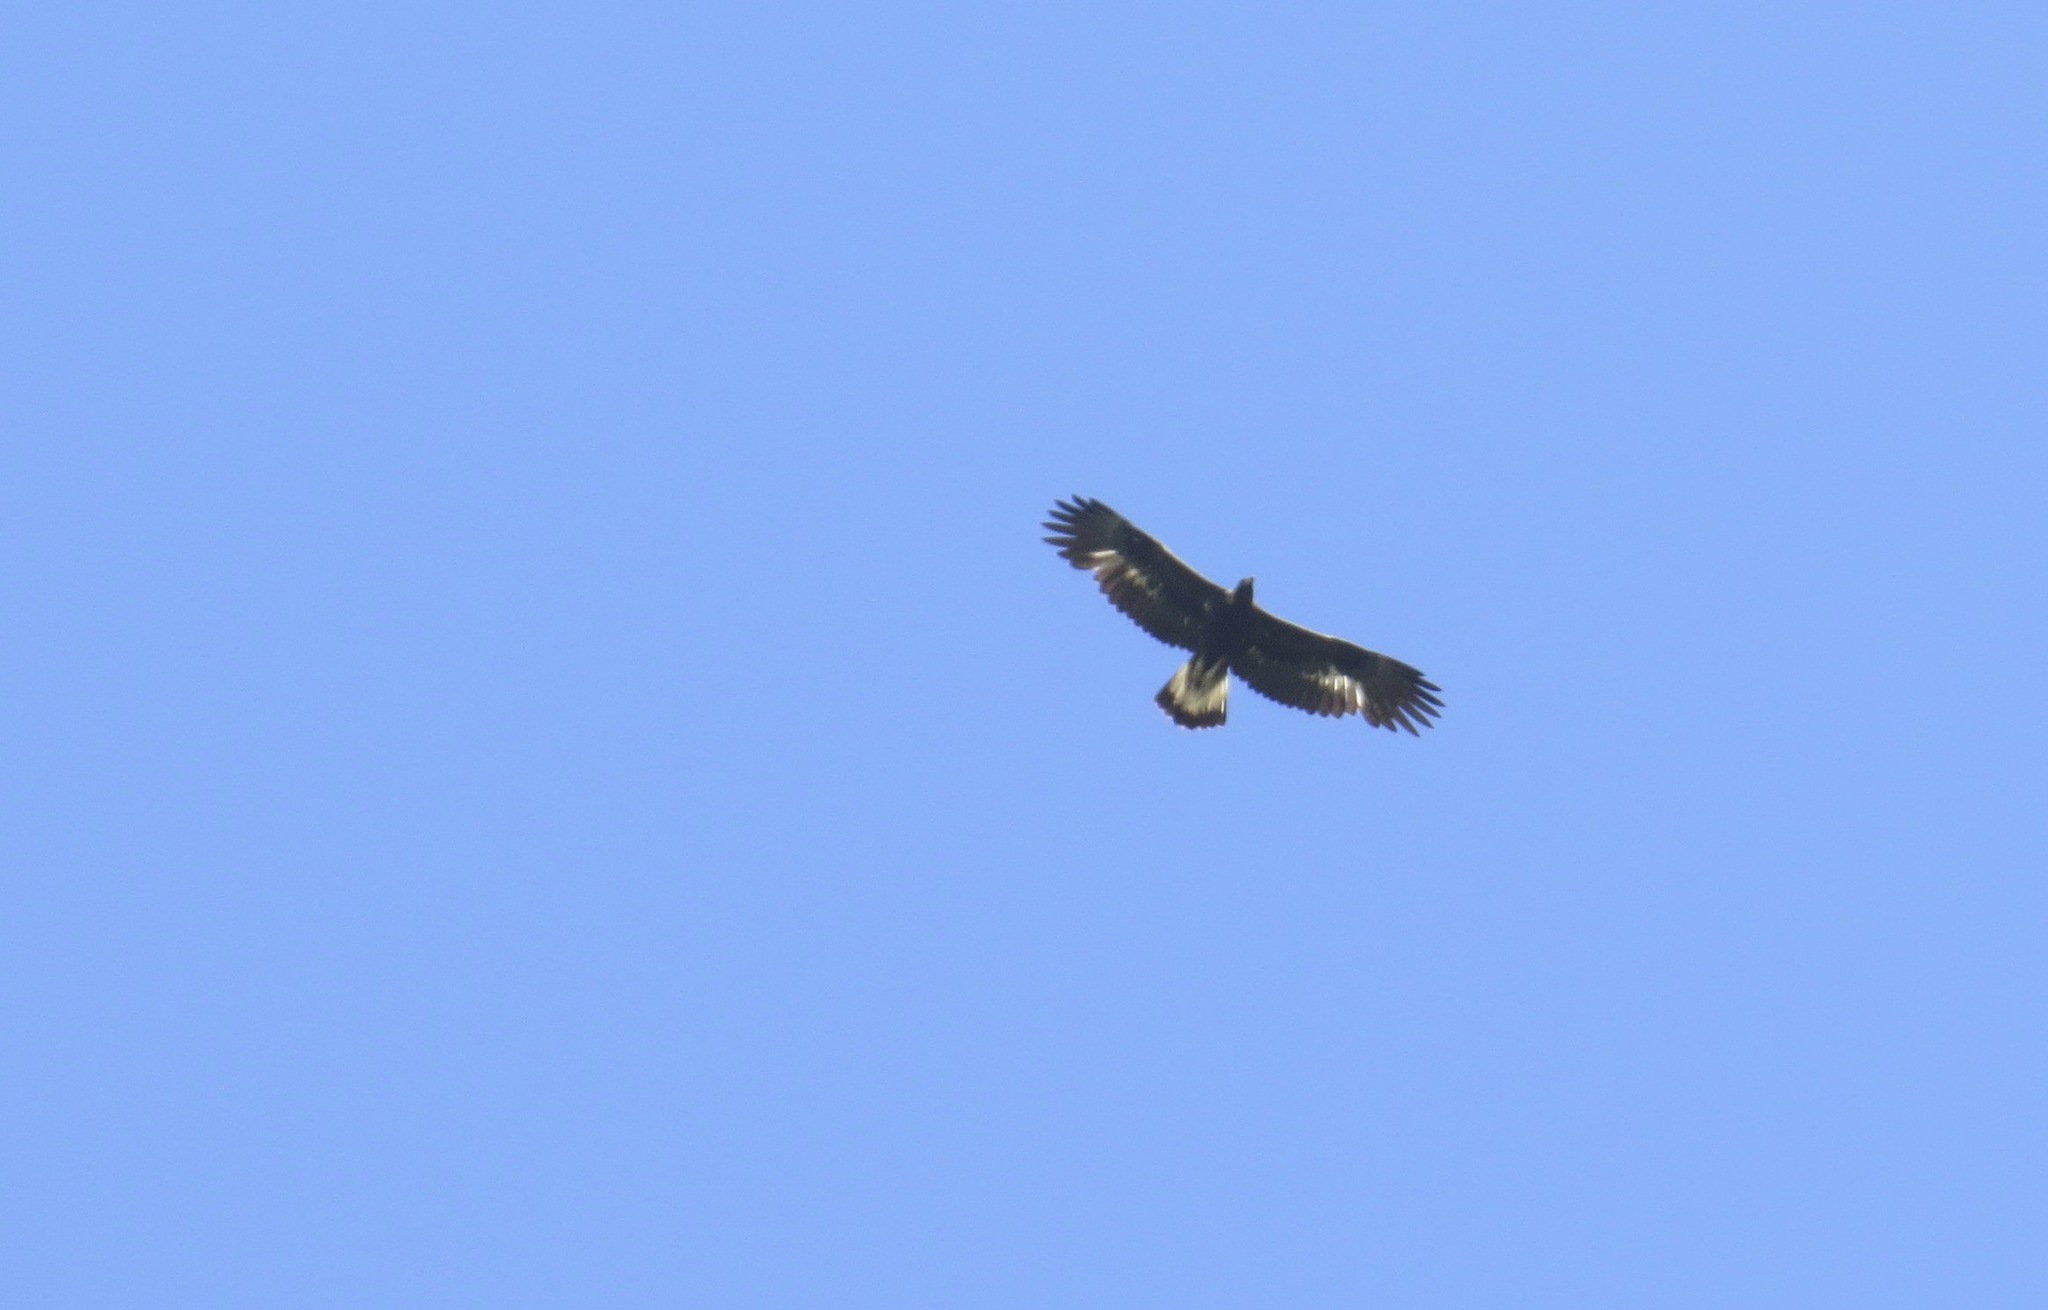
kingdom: Animalia
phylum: Chordata
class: Aves
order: Accipitriformes
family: Accipitridae
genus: Aquila
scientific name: Aquila chrysaetos
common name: Golden eagle
